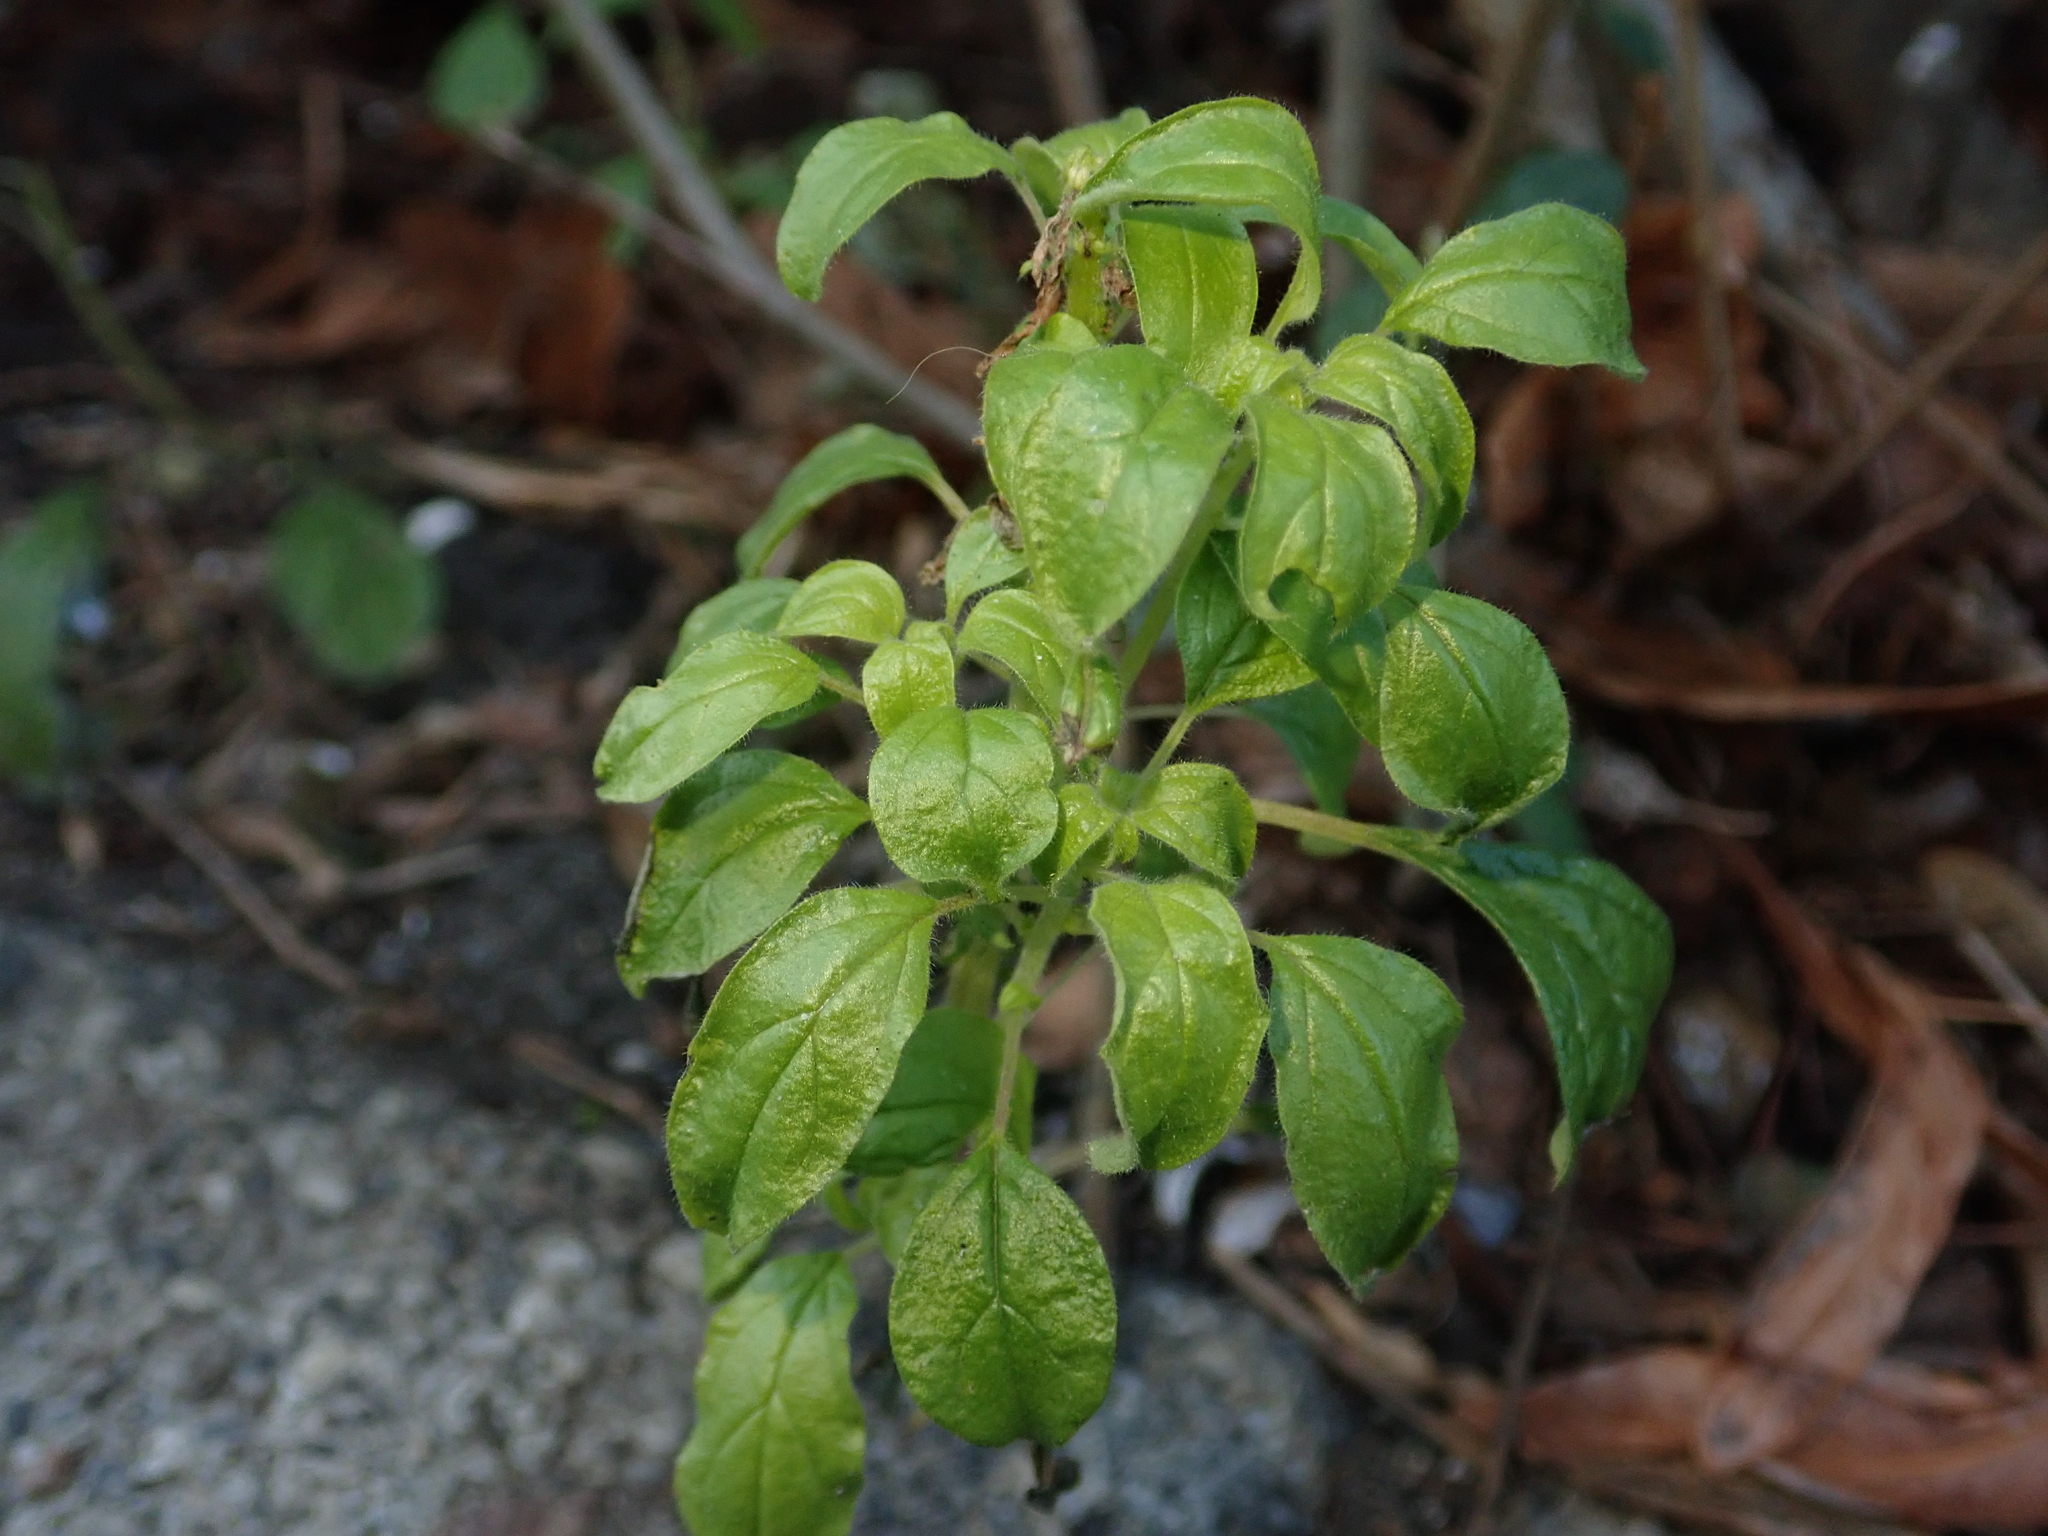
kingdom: Plantae
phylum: Tracheophyta
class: Magnoliopsida
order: Rosales
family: Urticaceae
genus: Parietaria
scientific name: Parietaria pensylvanica
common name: Pennsylvania pellitory
